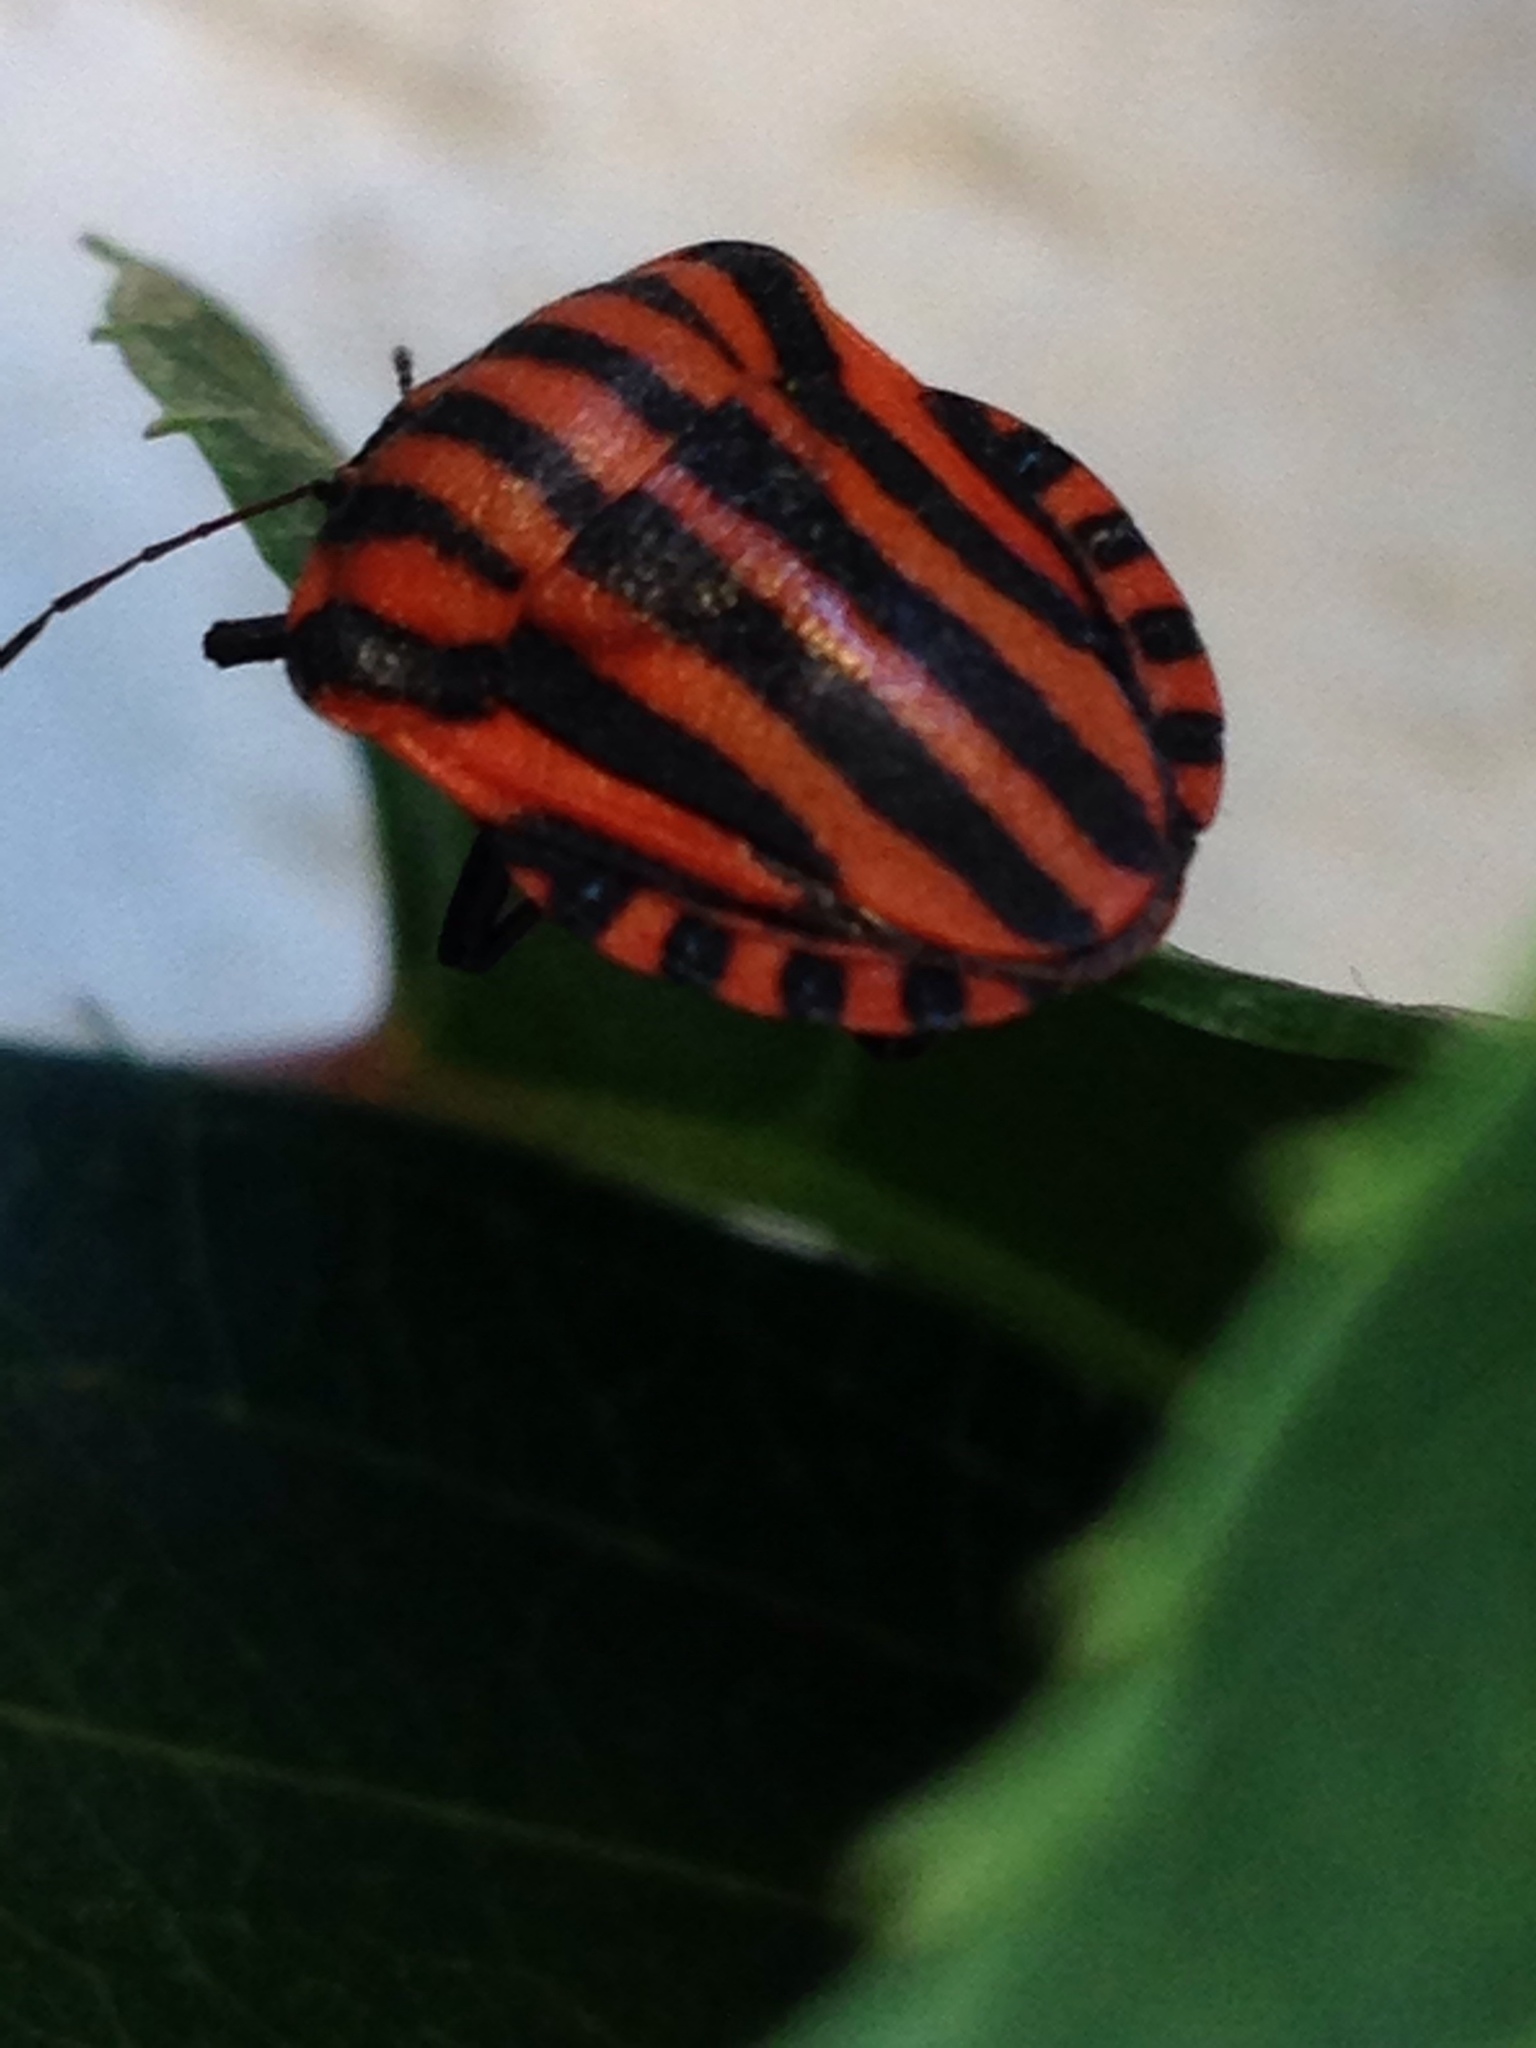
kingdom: Animalia
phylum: Arthropoda
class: Insecta
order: Hemiptera
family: Pentatomidae
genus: Graphosoma
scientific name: Graphosoma italicum
